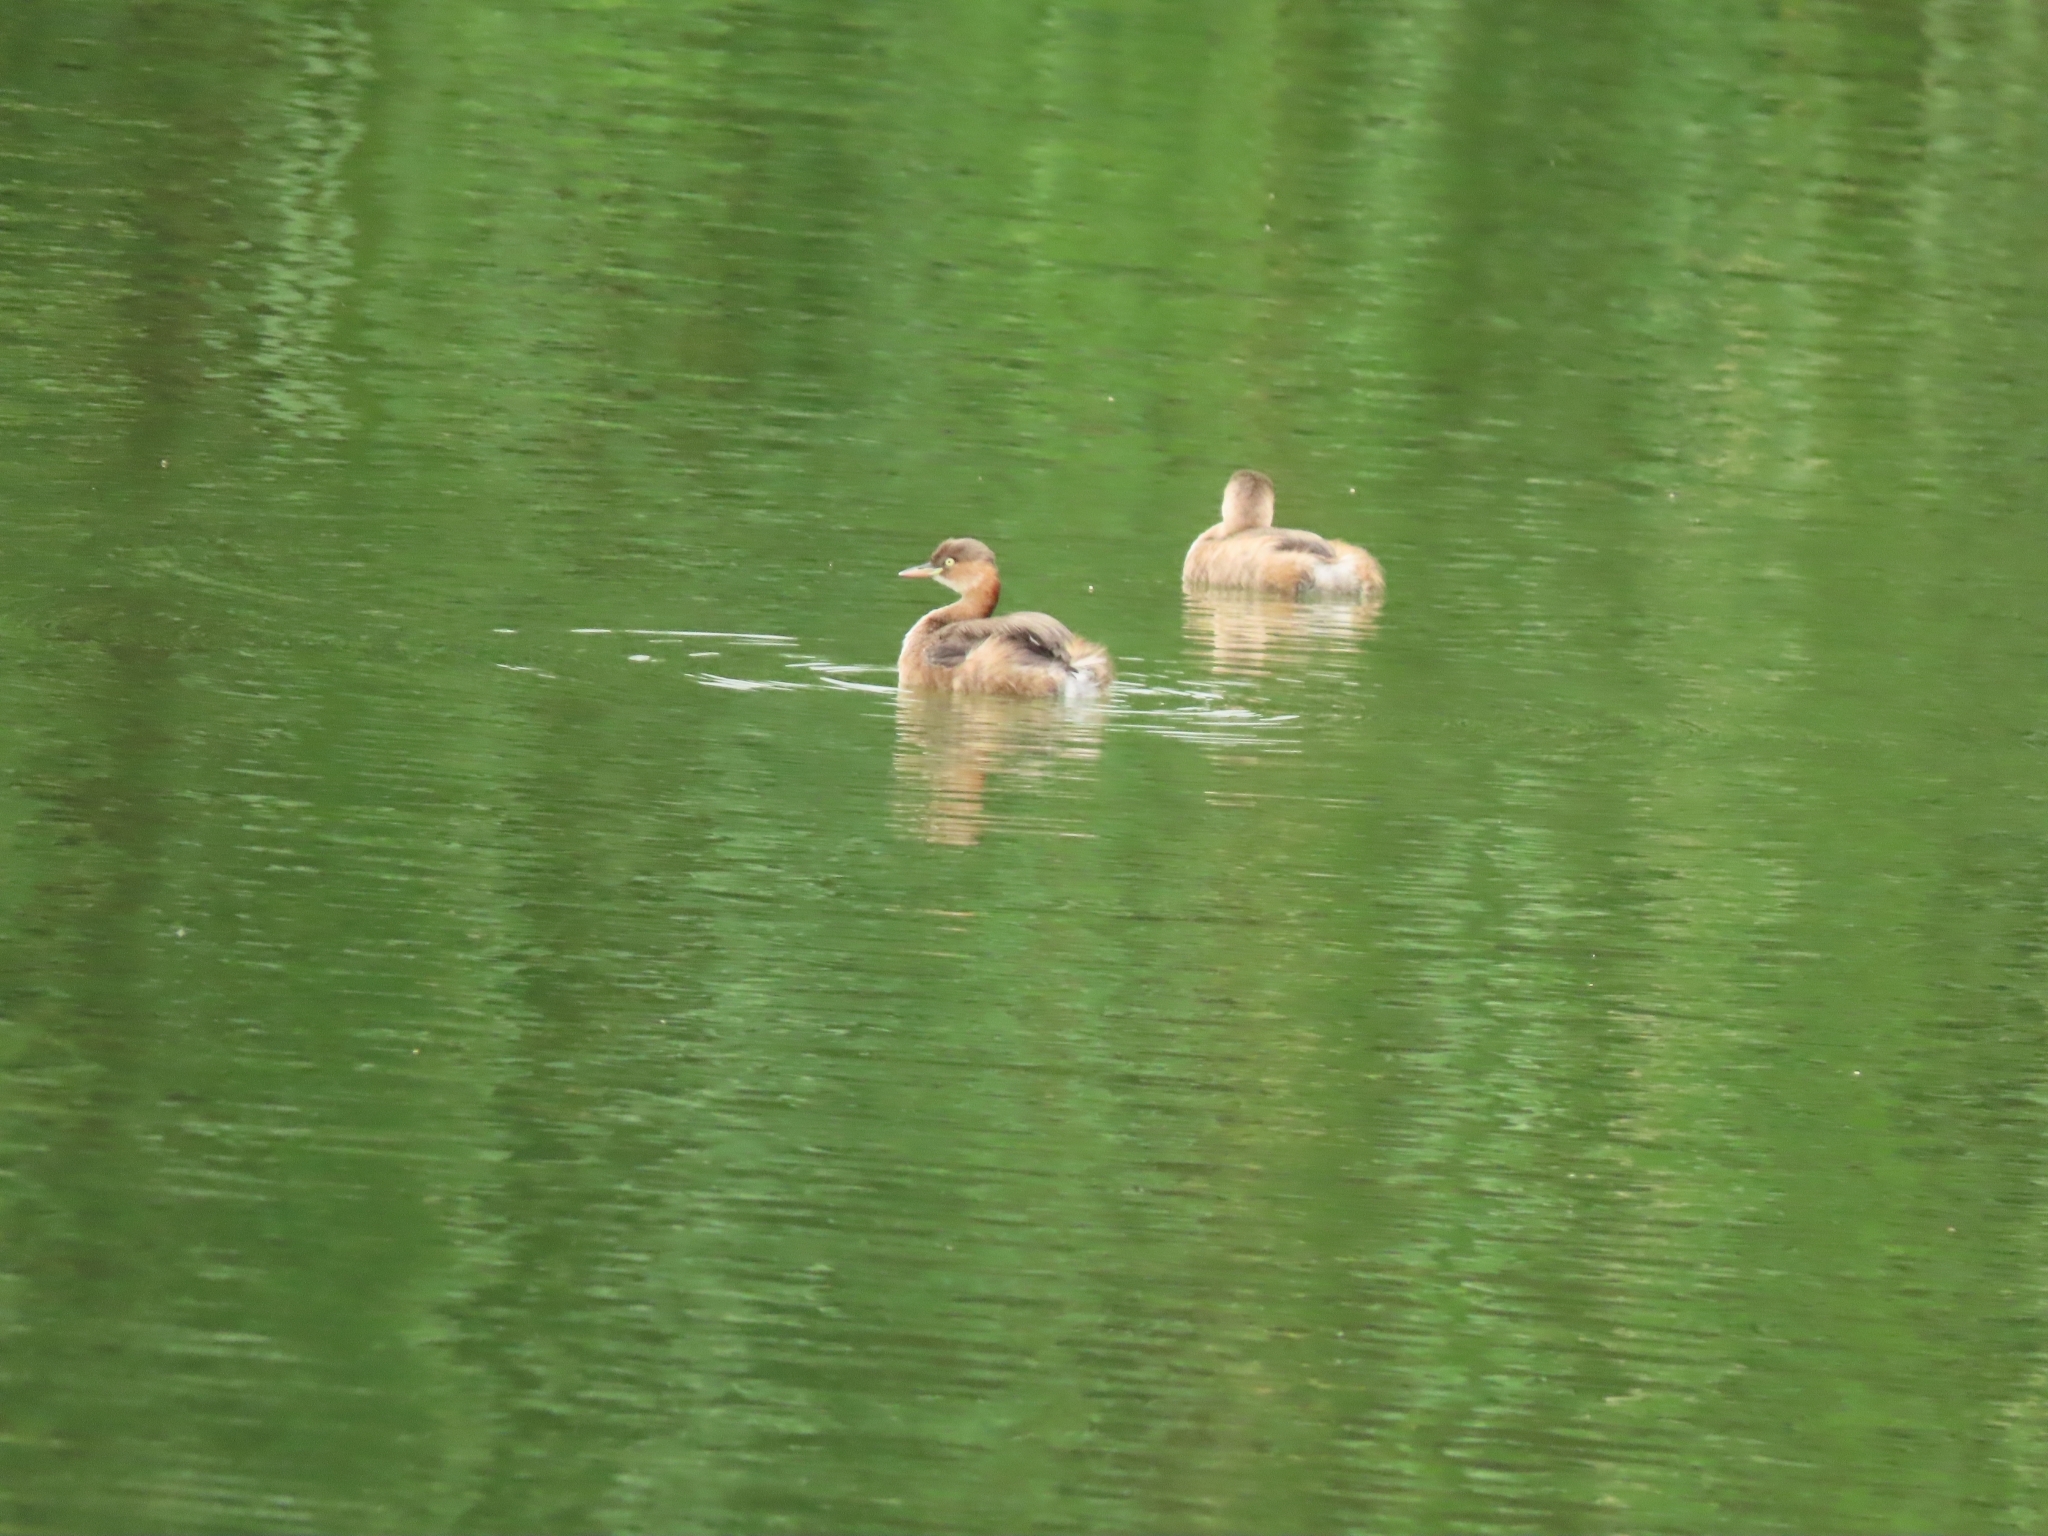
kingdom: Animalia
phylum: Chordata
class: Aves
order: Podicipediformes
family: Podicipedidae
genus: Tachybaptus
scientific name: Tachybaptus ruficollis
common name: Little grebe
